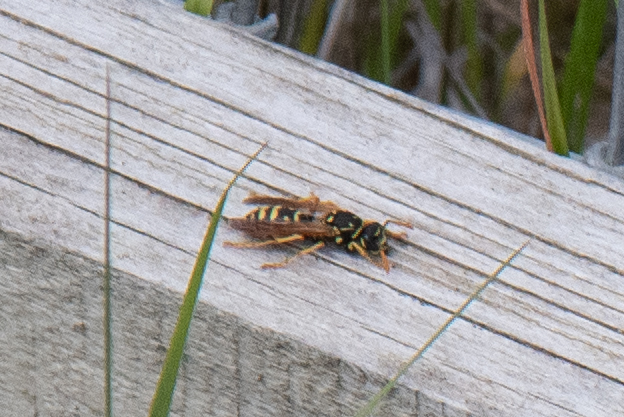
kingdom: Animalia
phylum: Arthropoda
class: Insecta
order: Hymenoptera
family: Eumenidae
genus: Polistes
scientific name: Polistes dominula
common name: Paper wasp
